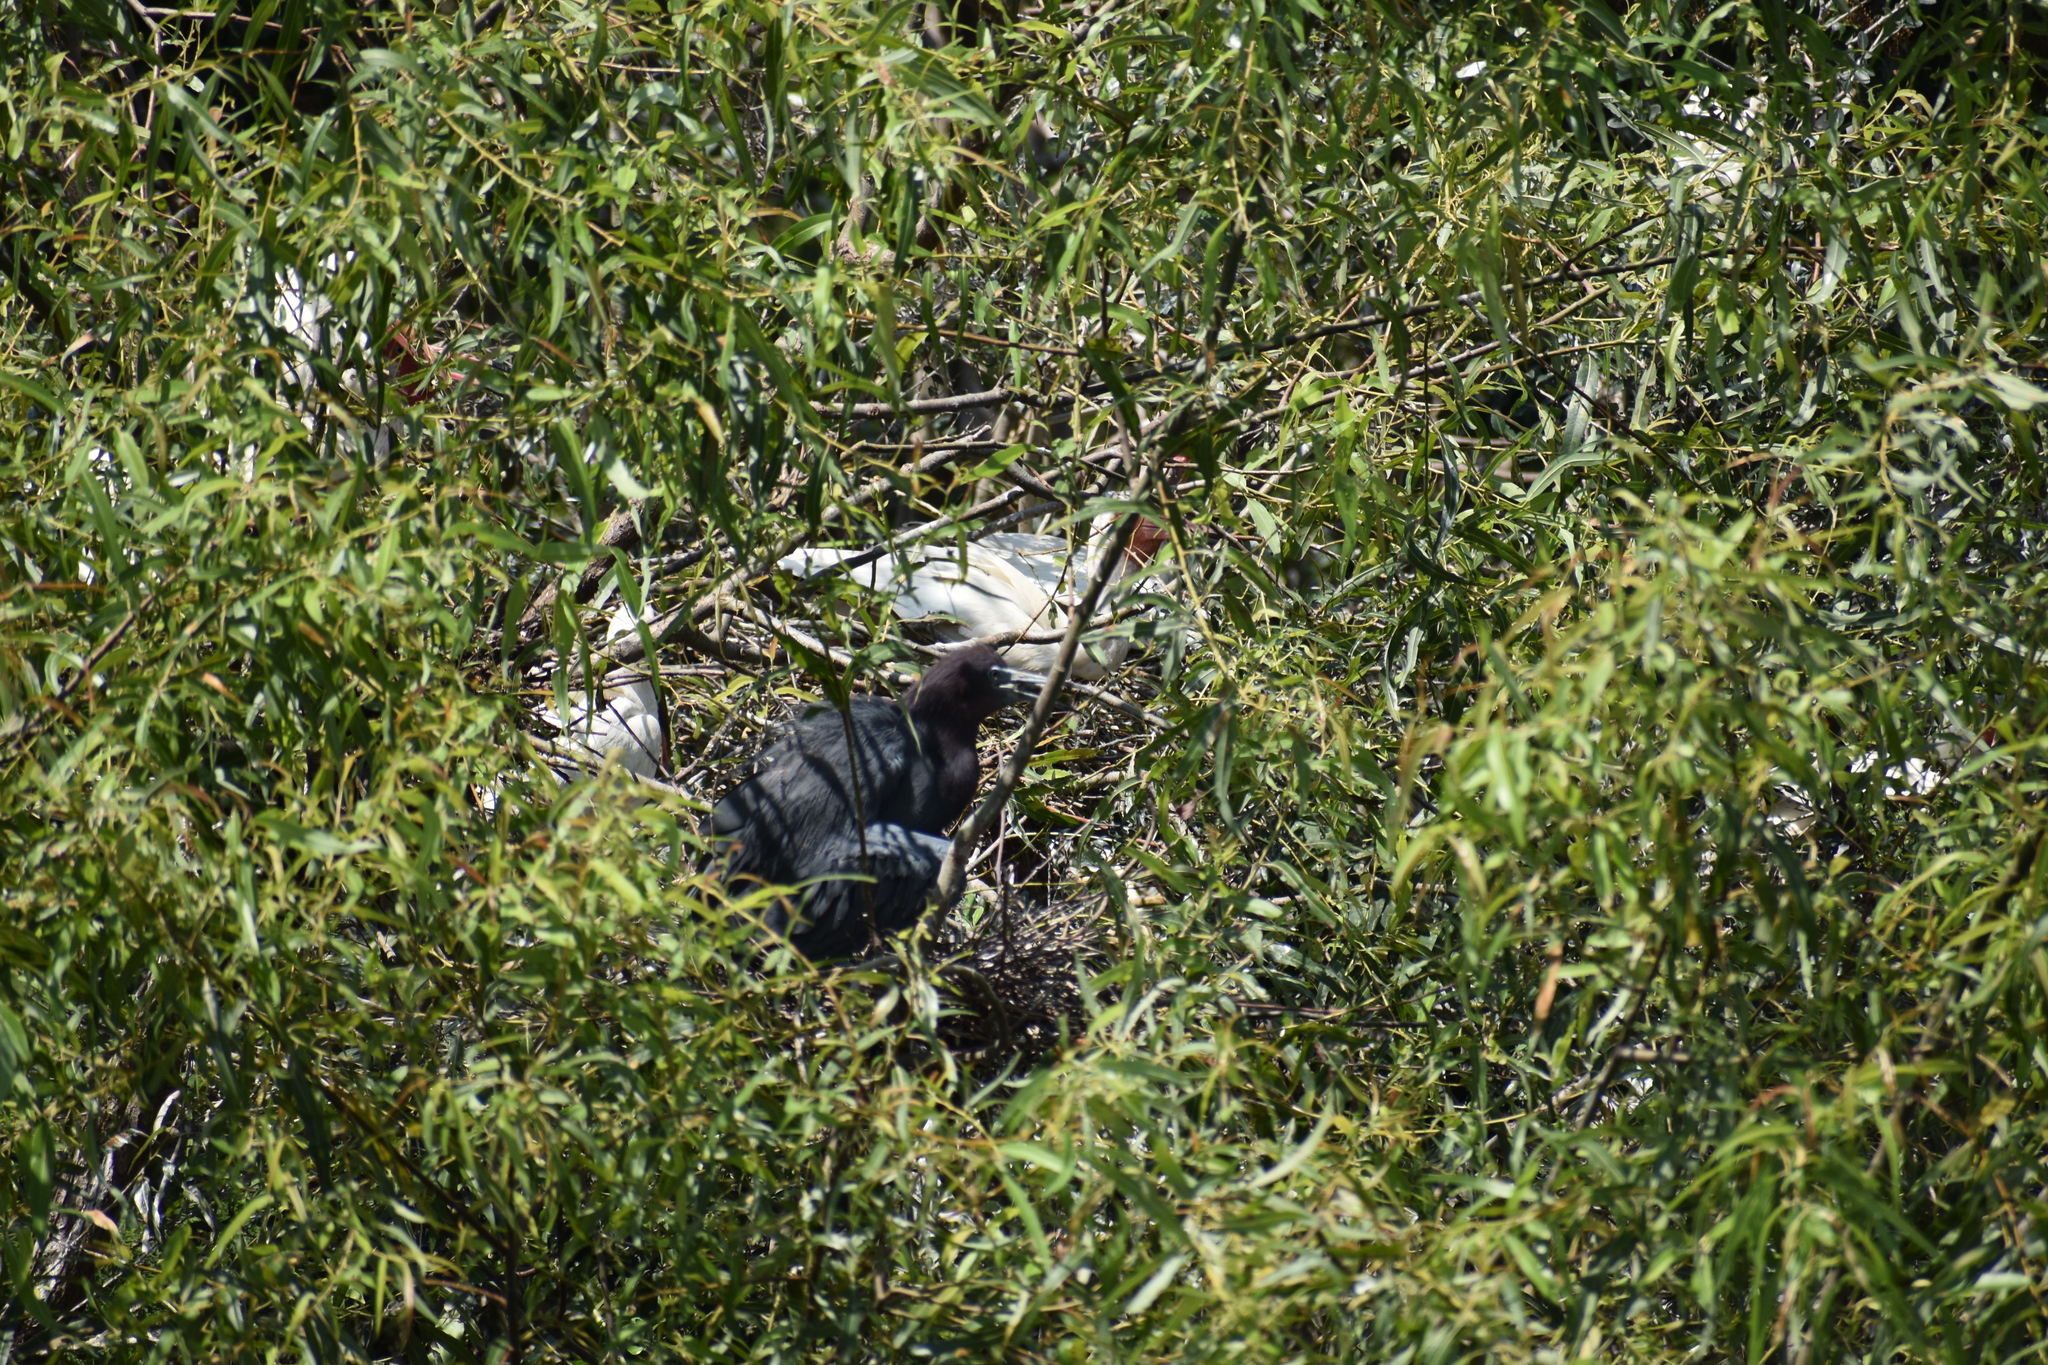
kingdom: Animalia
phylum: Chordata
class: Aves
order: Pelecaniformes
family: Ardeidae
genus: Egretta
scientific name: Egretta caerulea
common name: Little blue heron
